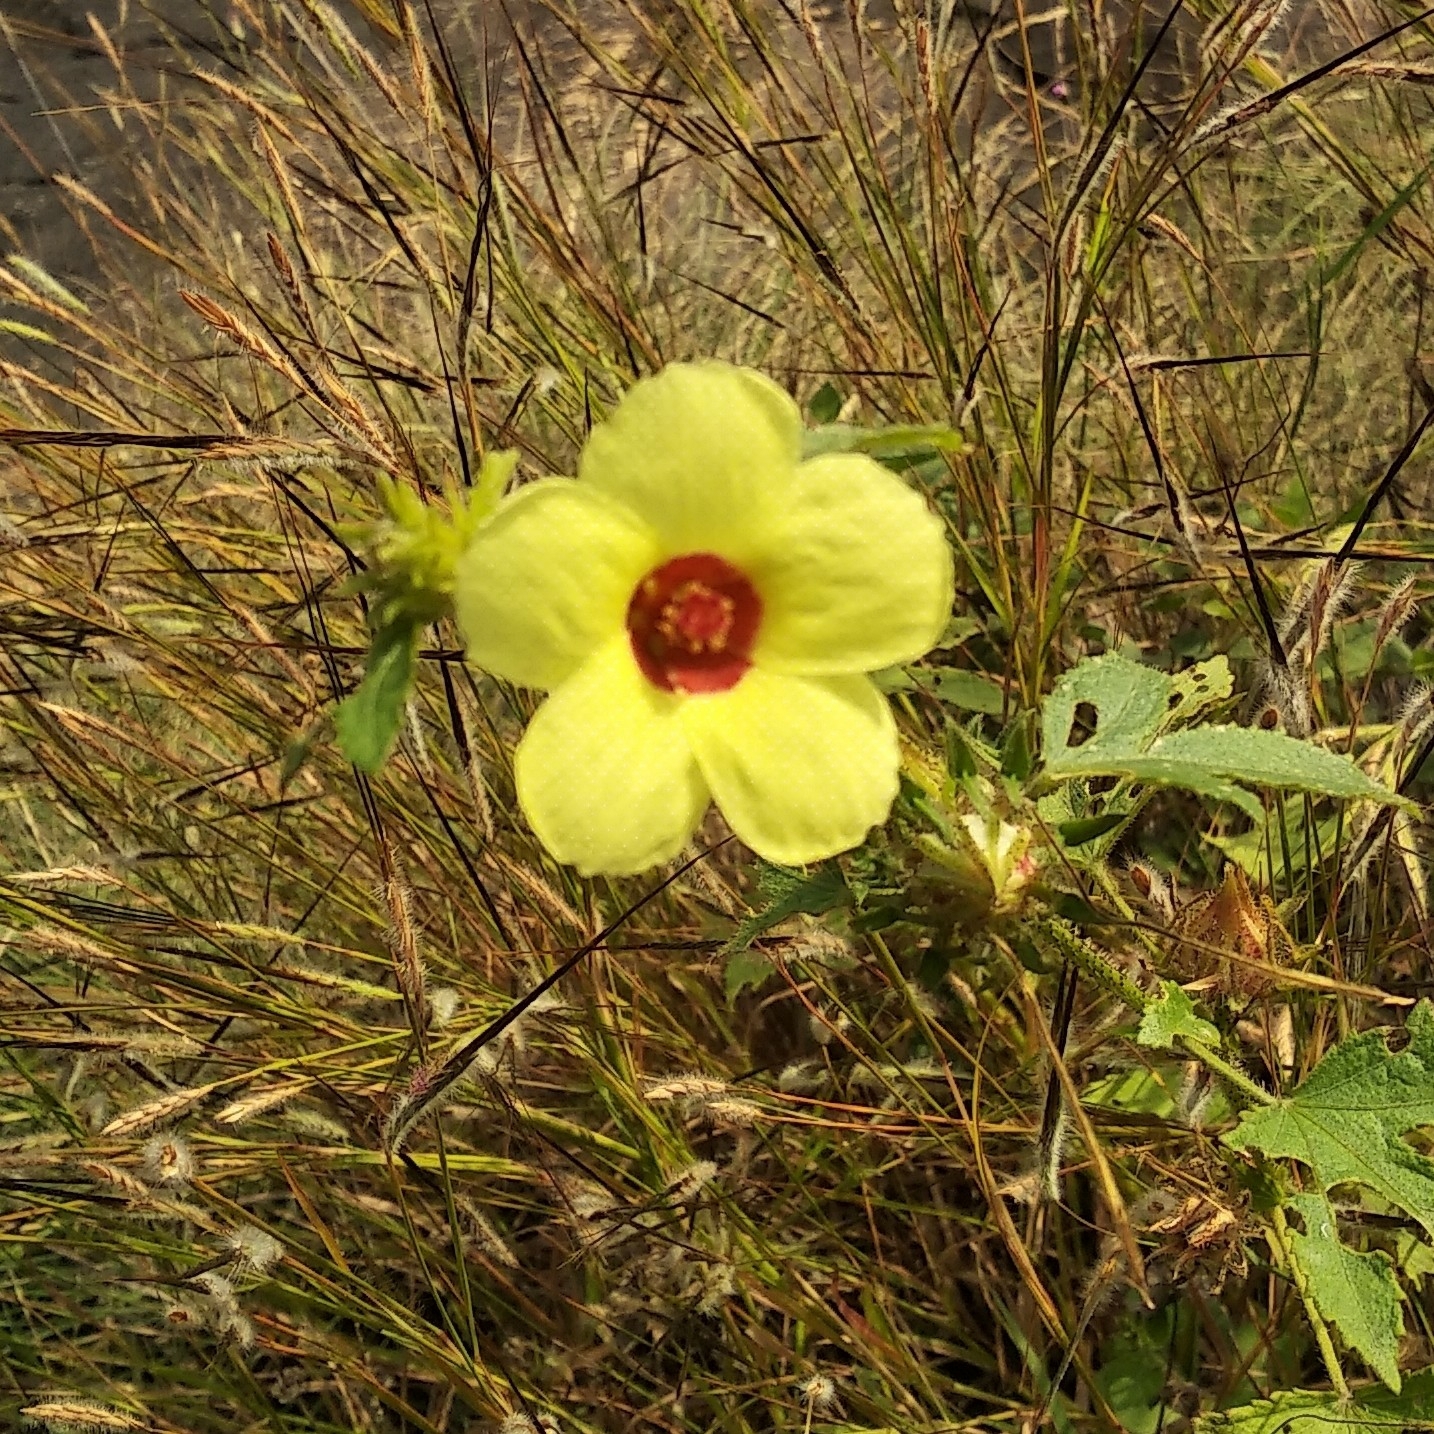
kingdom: Plantae
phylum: Tracheophyta
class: Magnoliopsida
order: Malvales
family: Malvaceae
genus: Hibiscus
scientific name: Hibiscus surattensis
